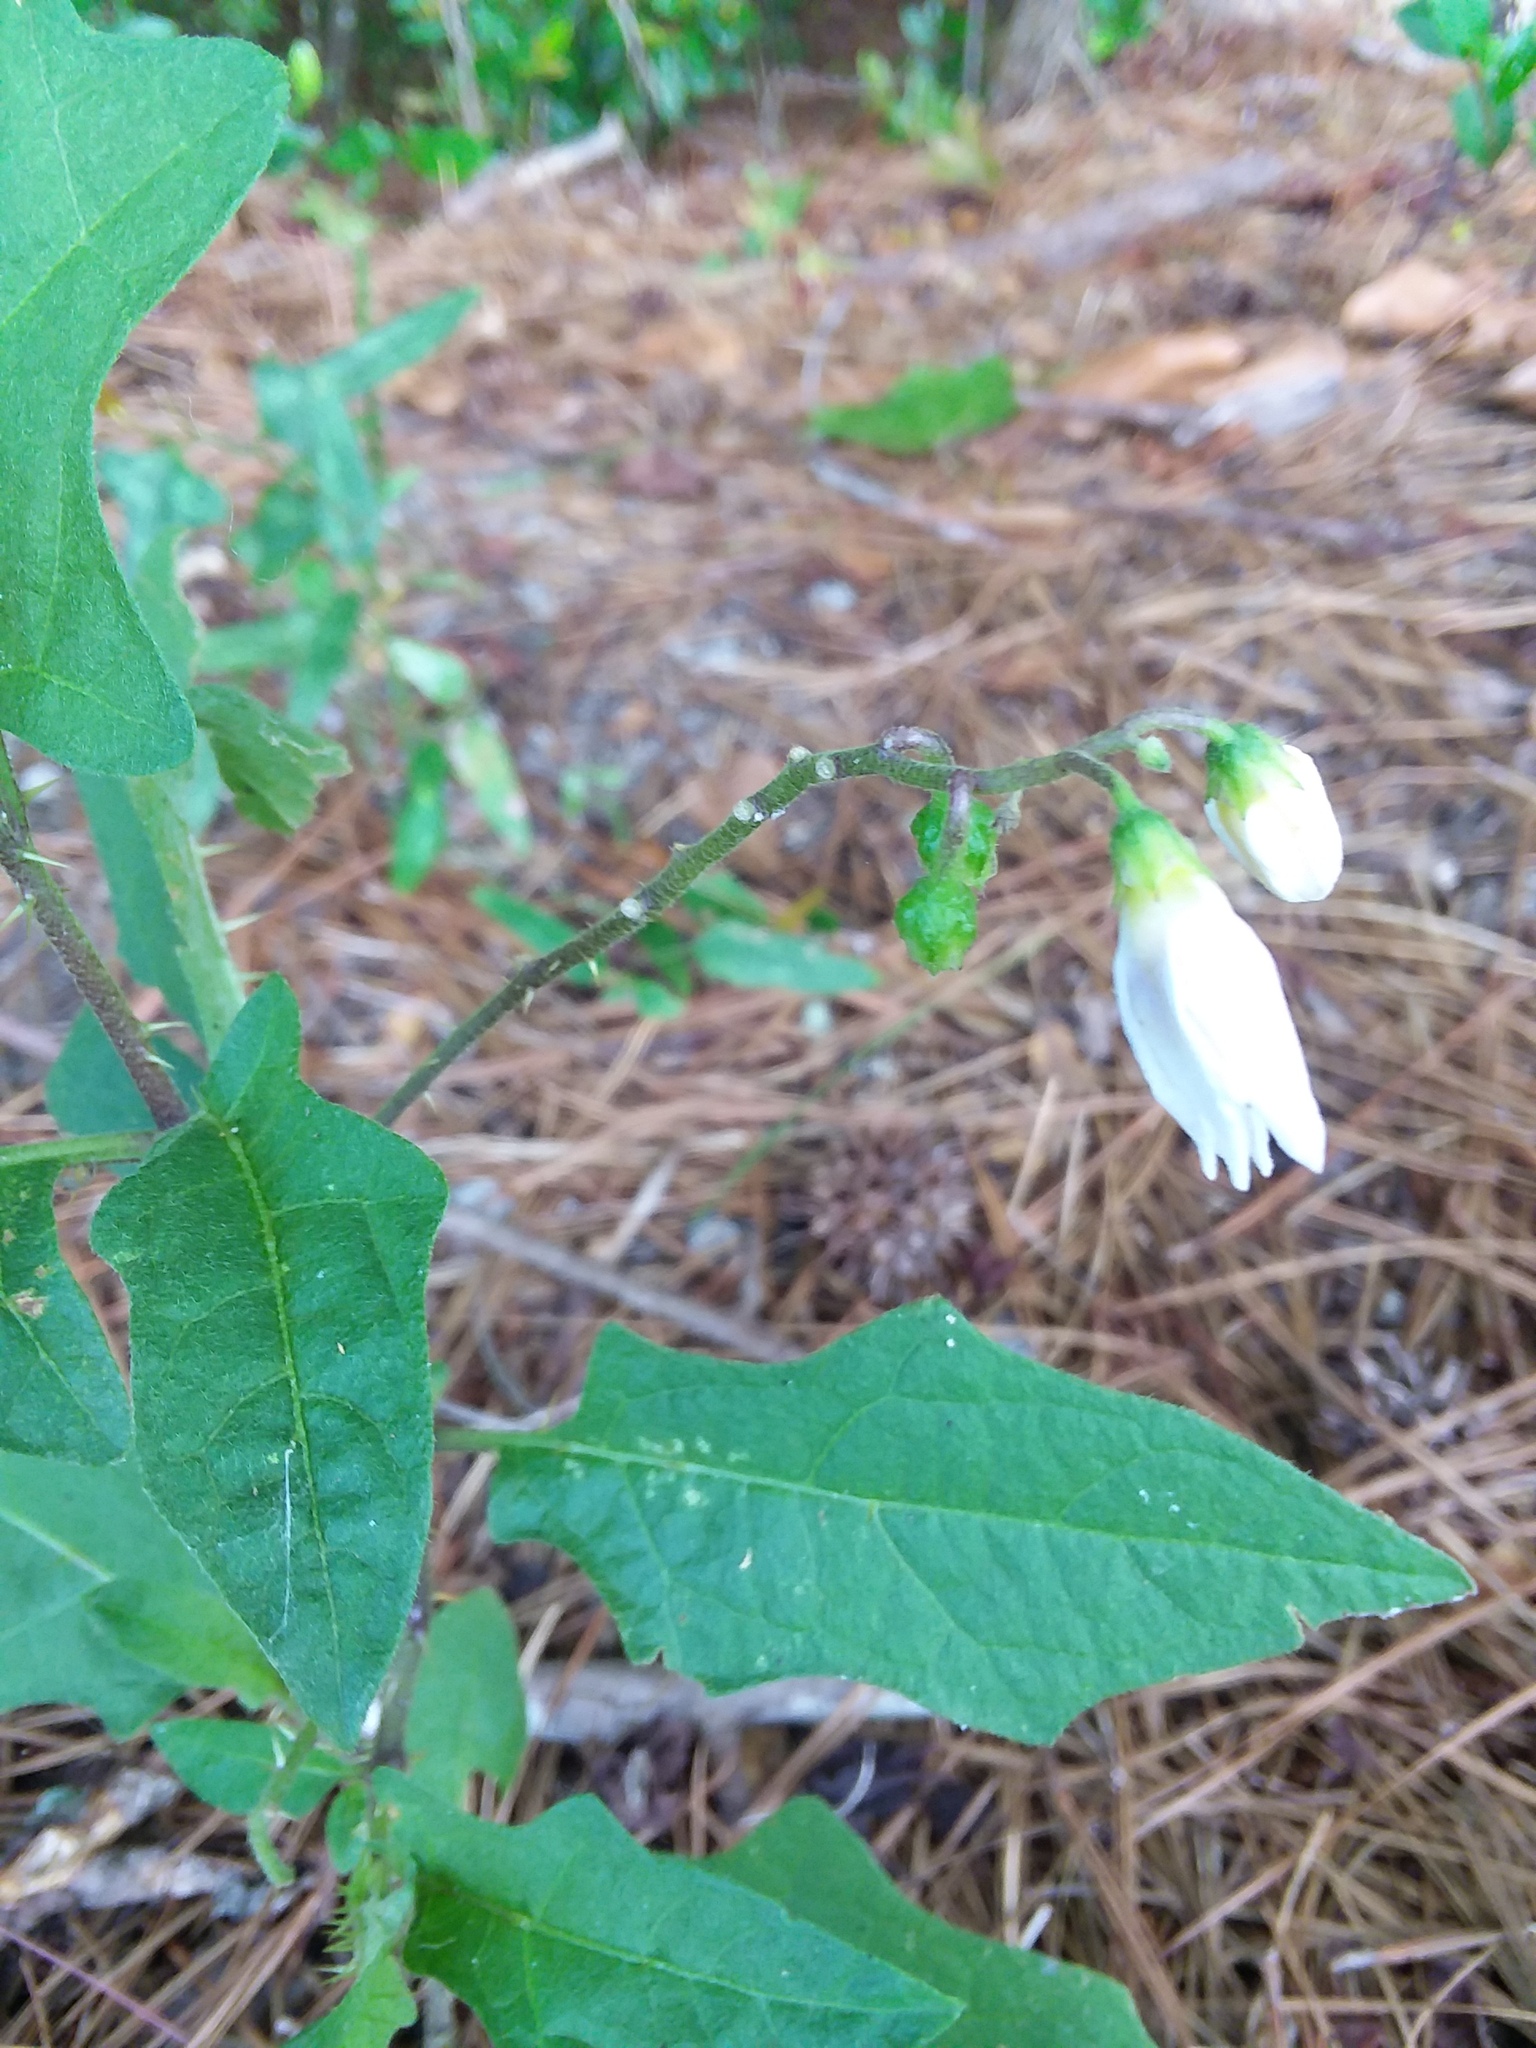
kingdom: Plantae
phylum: Tracheophyta
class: Magnoliopsida
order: Solanales
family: Solanaceae
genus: Solanum
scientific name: Solanum carolinense
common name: Horse-nettle
